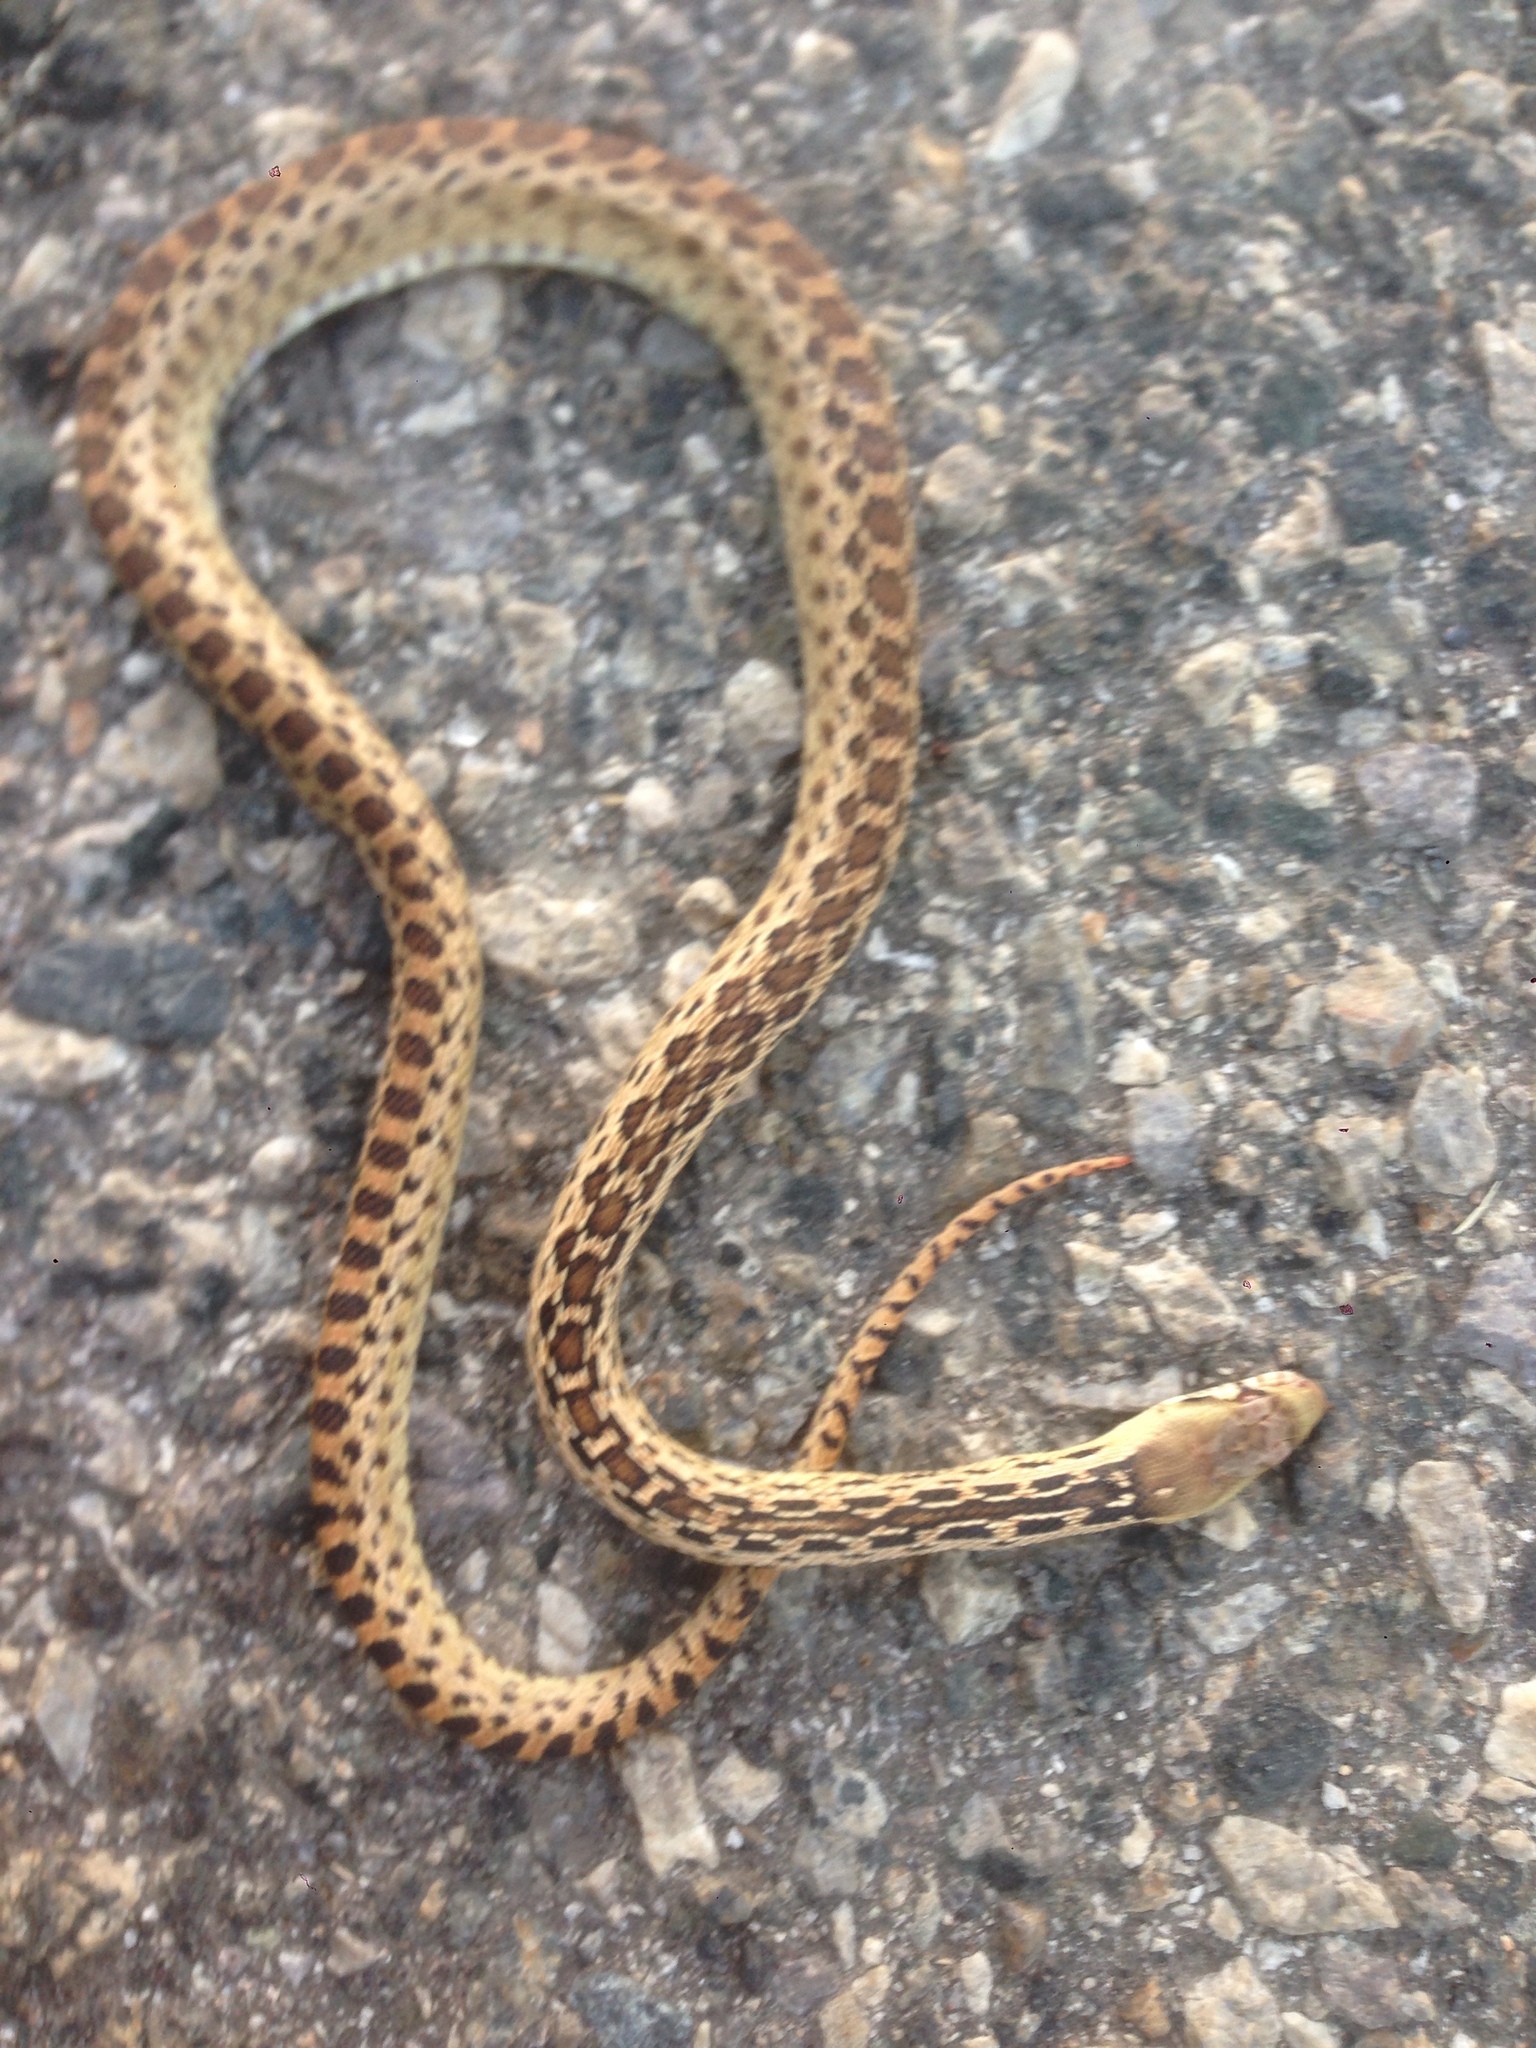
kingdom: Animalia
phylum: Chordata
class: Squamata
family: Colubridae
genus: Pituophis
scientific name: Pituophis catenifer
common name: Gopher snake
